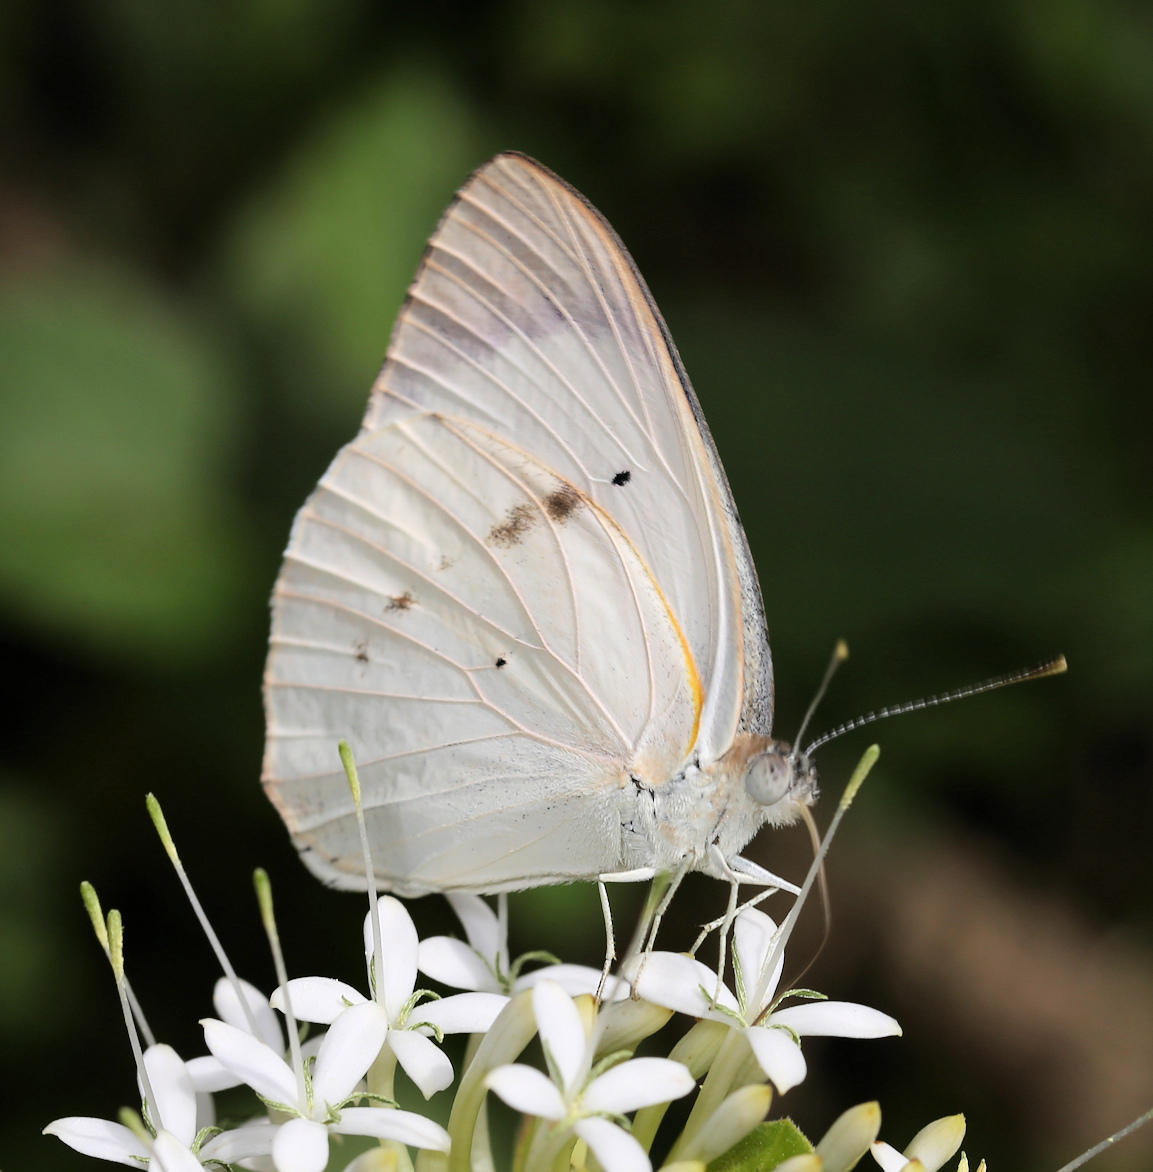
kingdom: Animalia
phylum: Arthropoda
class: Insecta
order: Lepidoptera
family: Pieridae
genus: Colotis
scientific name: Colotis ione
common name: Bushveld purple tip
